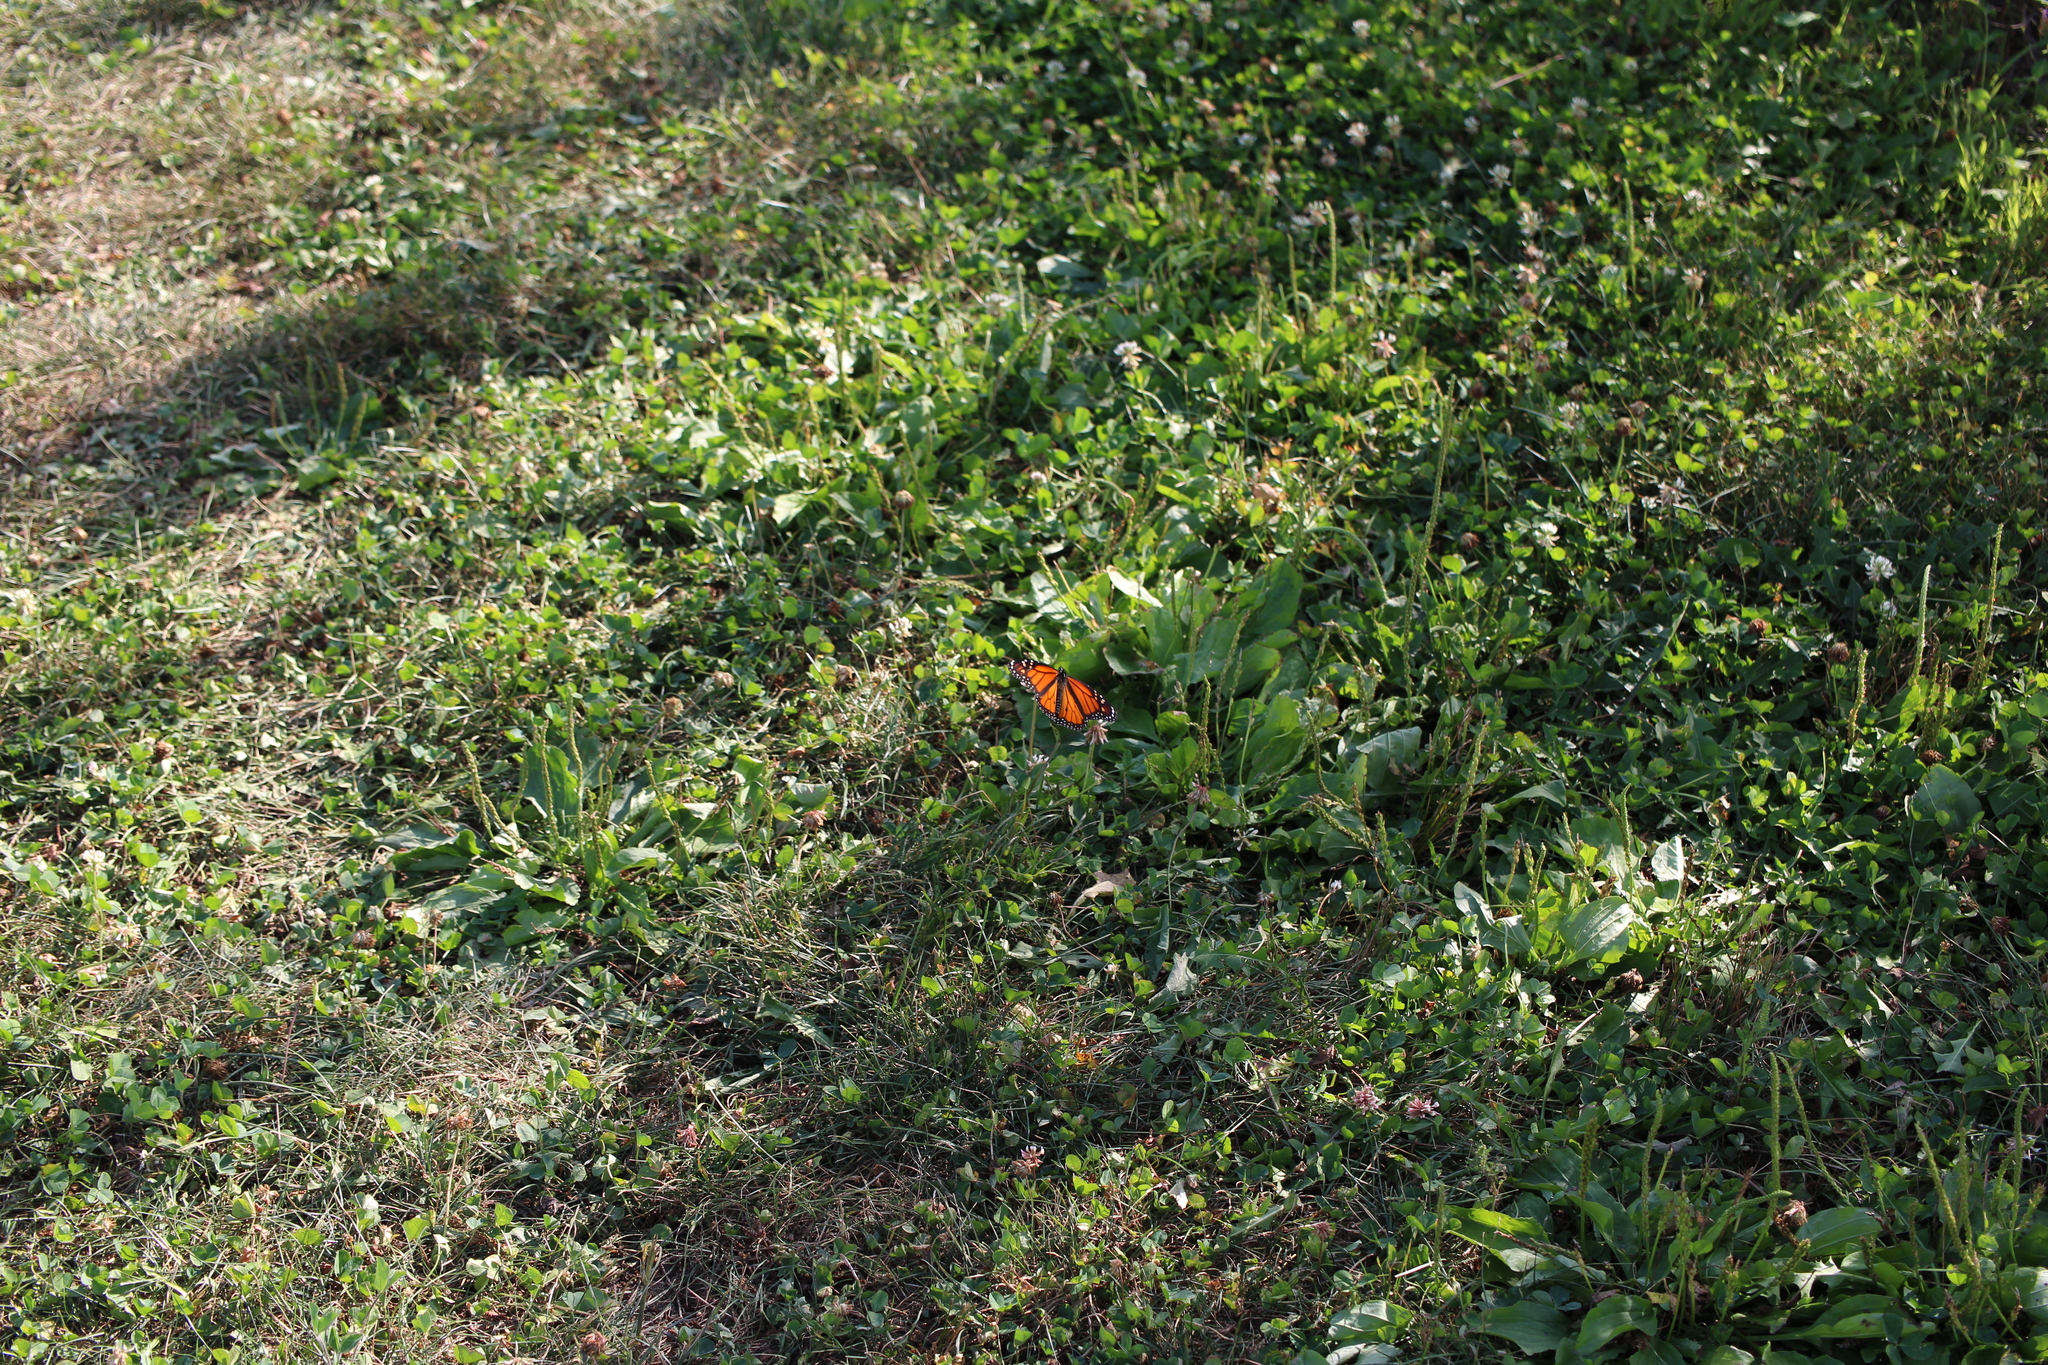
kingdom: Animalia
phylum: Arthropoda
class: Insecta
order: Lepidoptera
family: Nymphalidae
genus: Danaus
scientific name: Danaus plexippus
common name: Monarch
